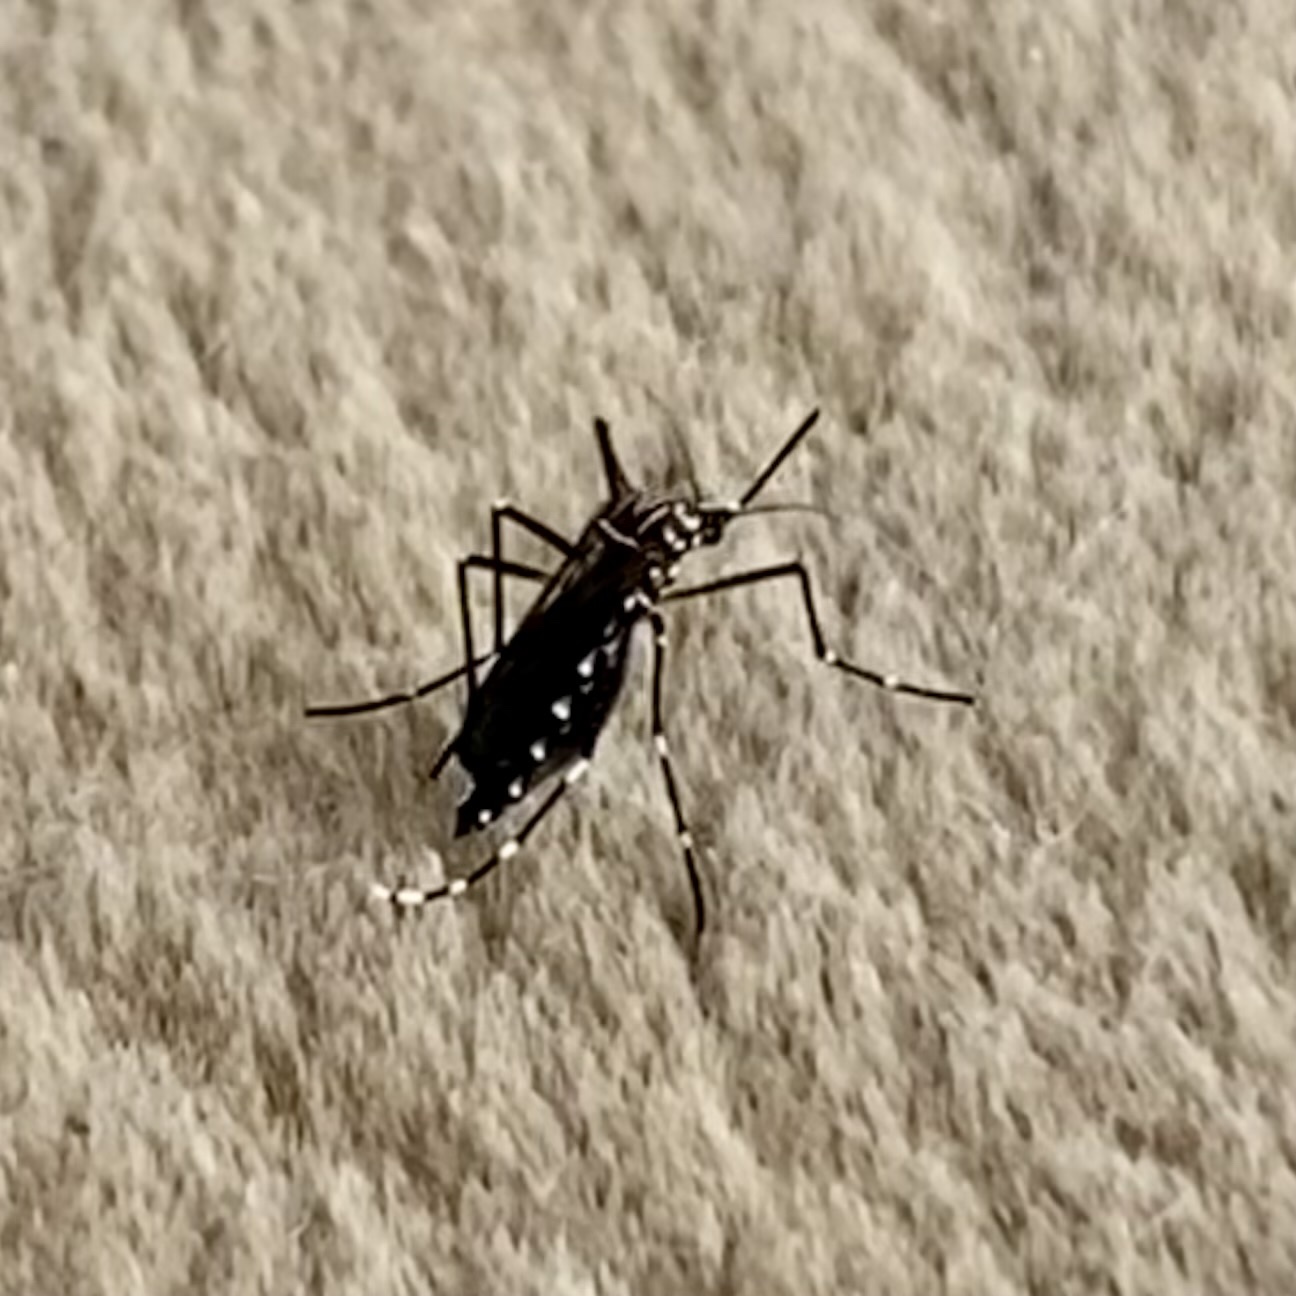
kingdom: Animalia
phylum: Arthropoda
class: Insecta
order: Diptera
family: Culicidae
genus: Aedes
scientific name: Aedes aegypti
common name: Yellow fever mosquito
